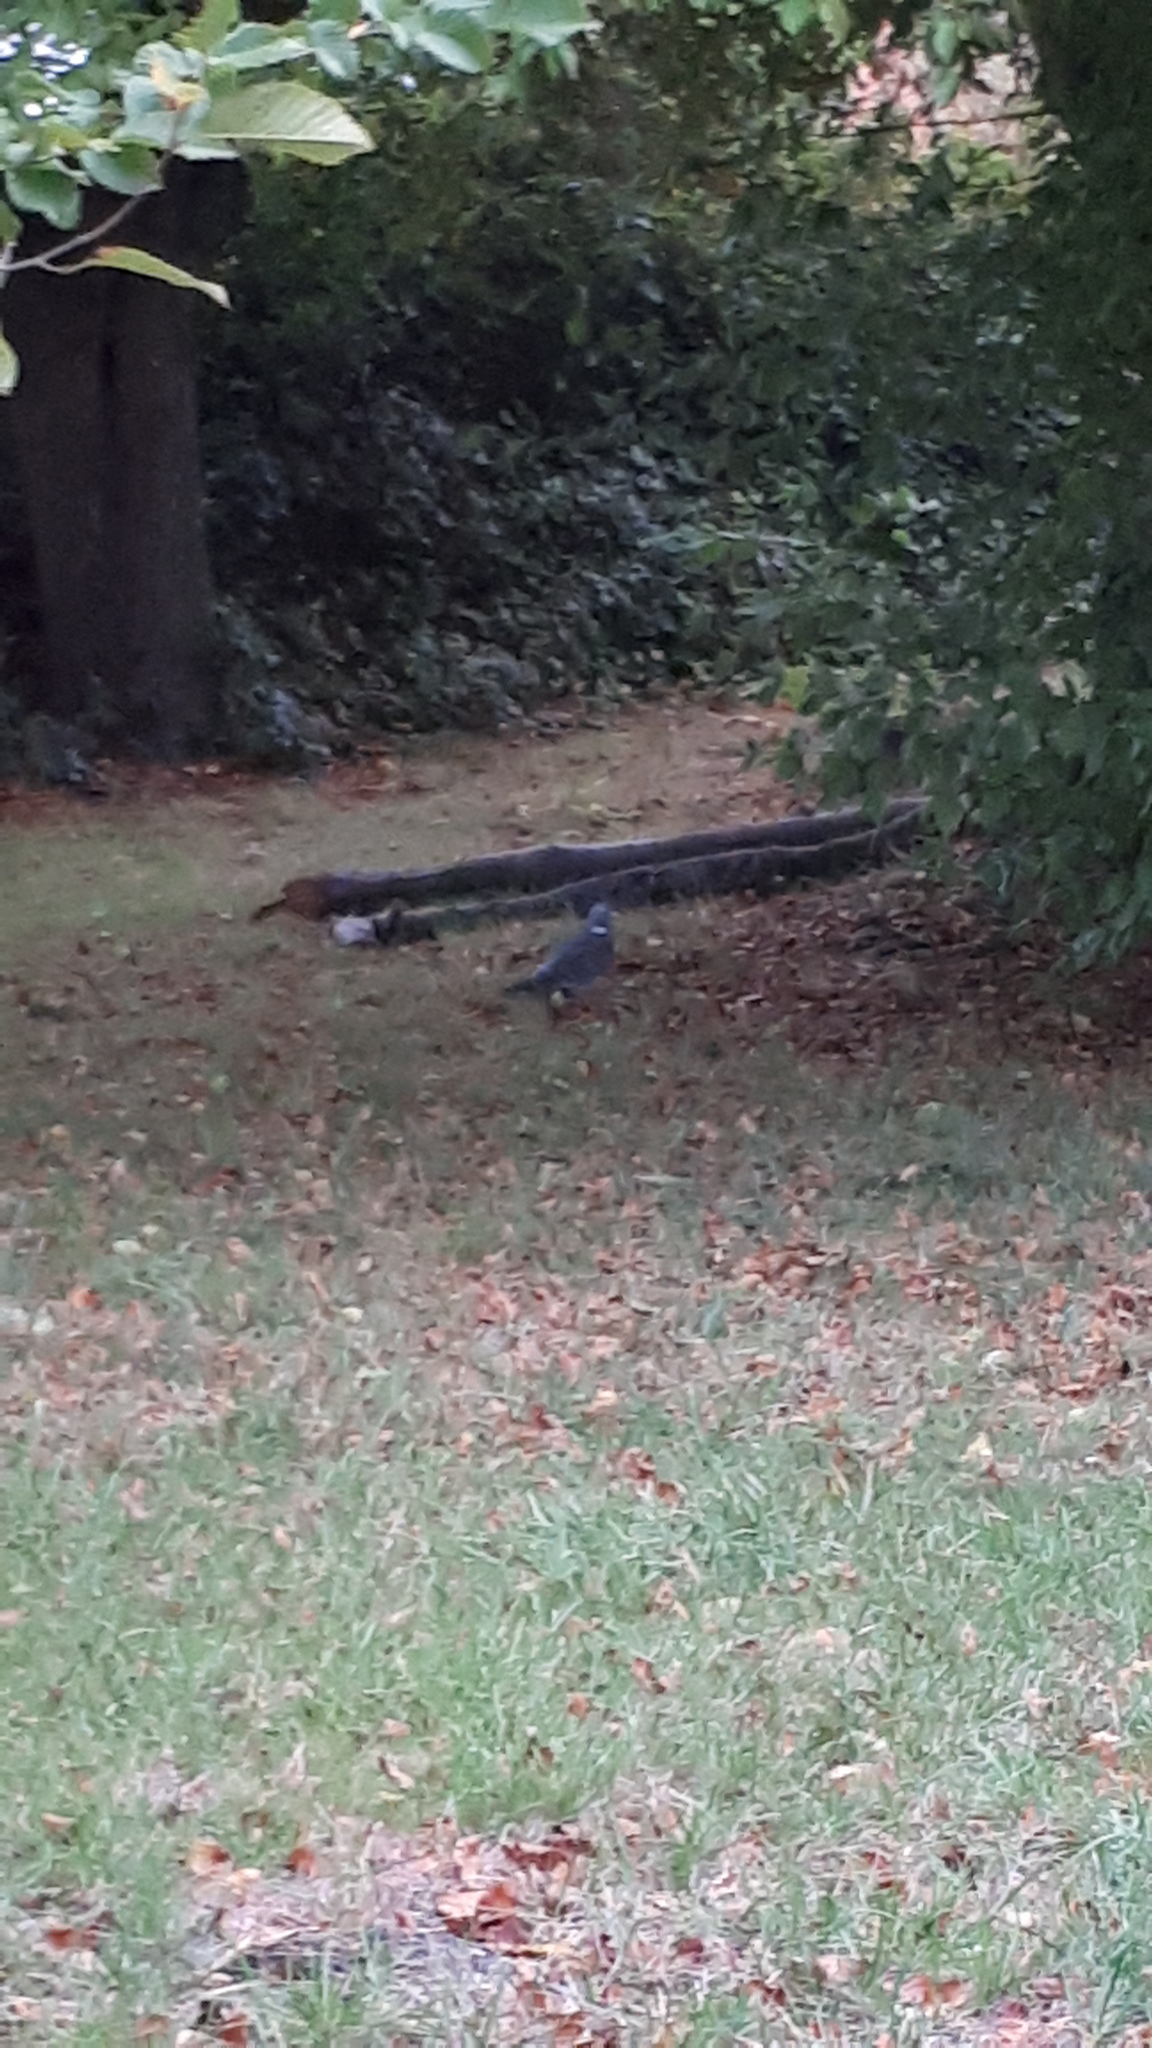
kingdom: Animalia
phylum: Chordata
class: Aves
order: Columbiformes
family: Columbidae
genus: Columba
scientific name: Columba palumbus
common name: Common wood pigeon
